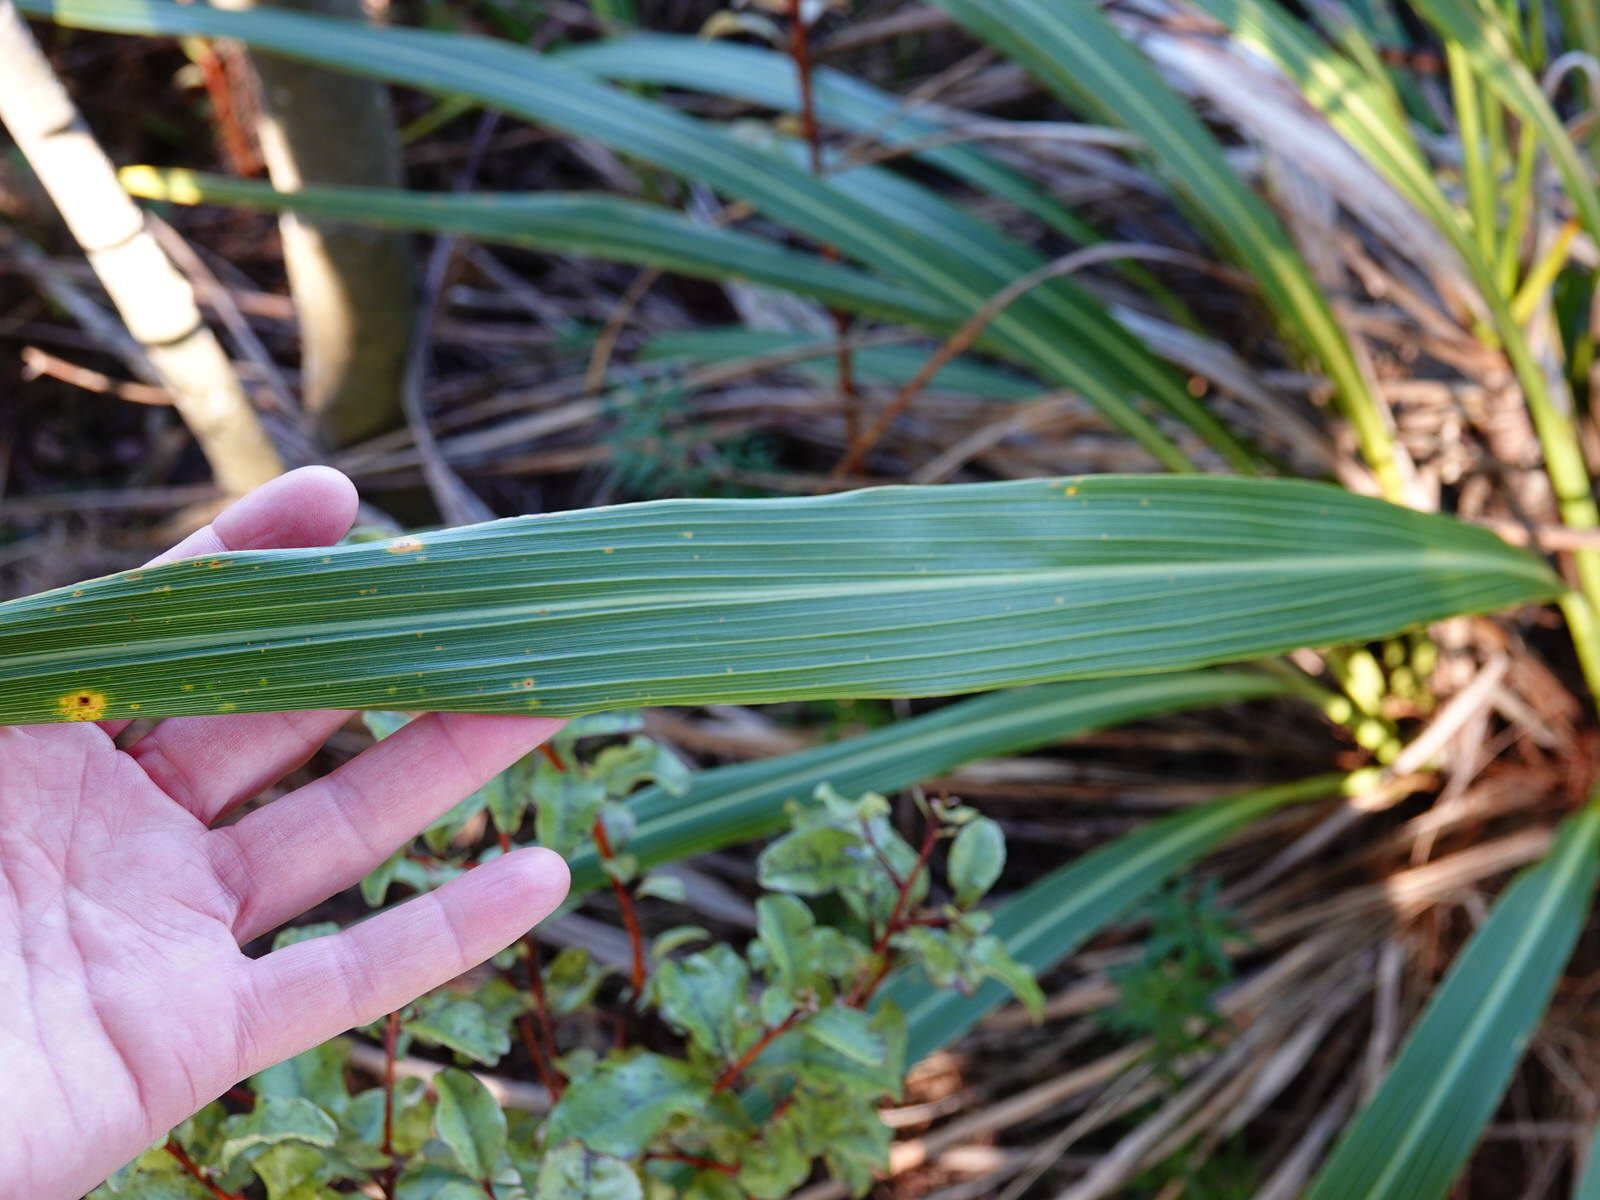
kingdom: Plantae
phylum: Tracheophyta
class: Liliopsida
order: Asparagales
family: Asparagaceae
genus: Cordyline
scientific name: Cordyline banksii
